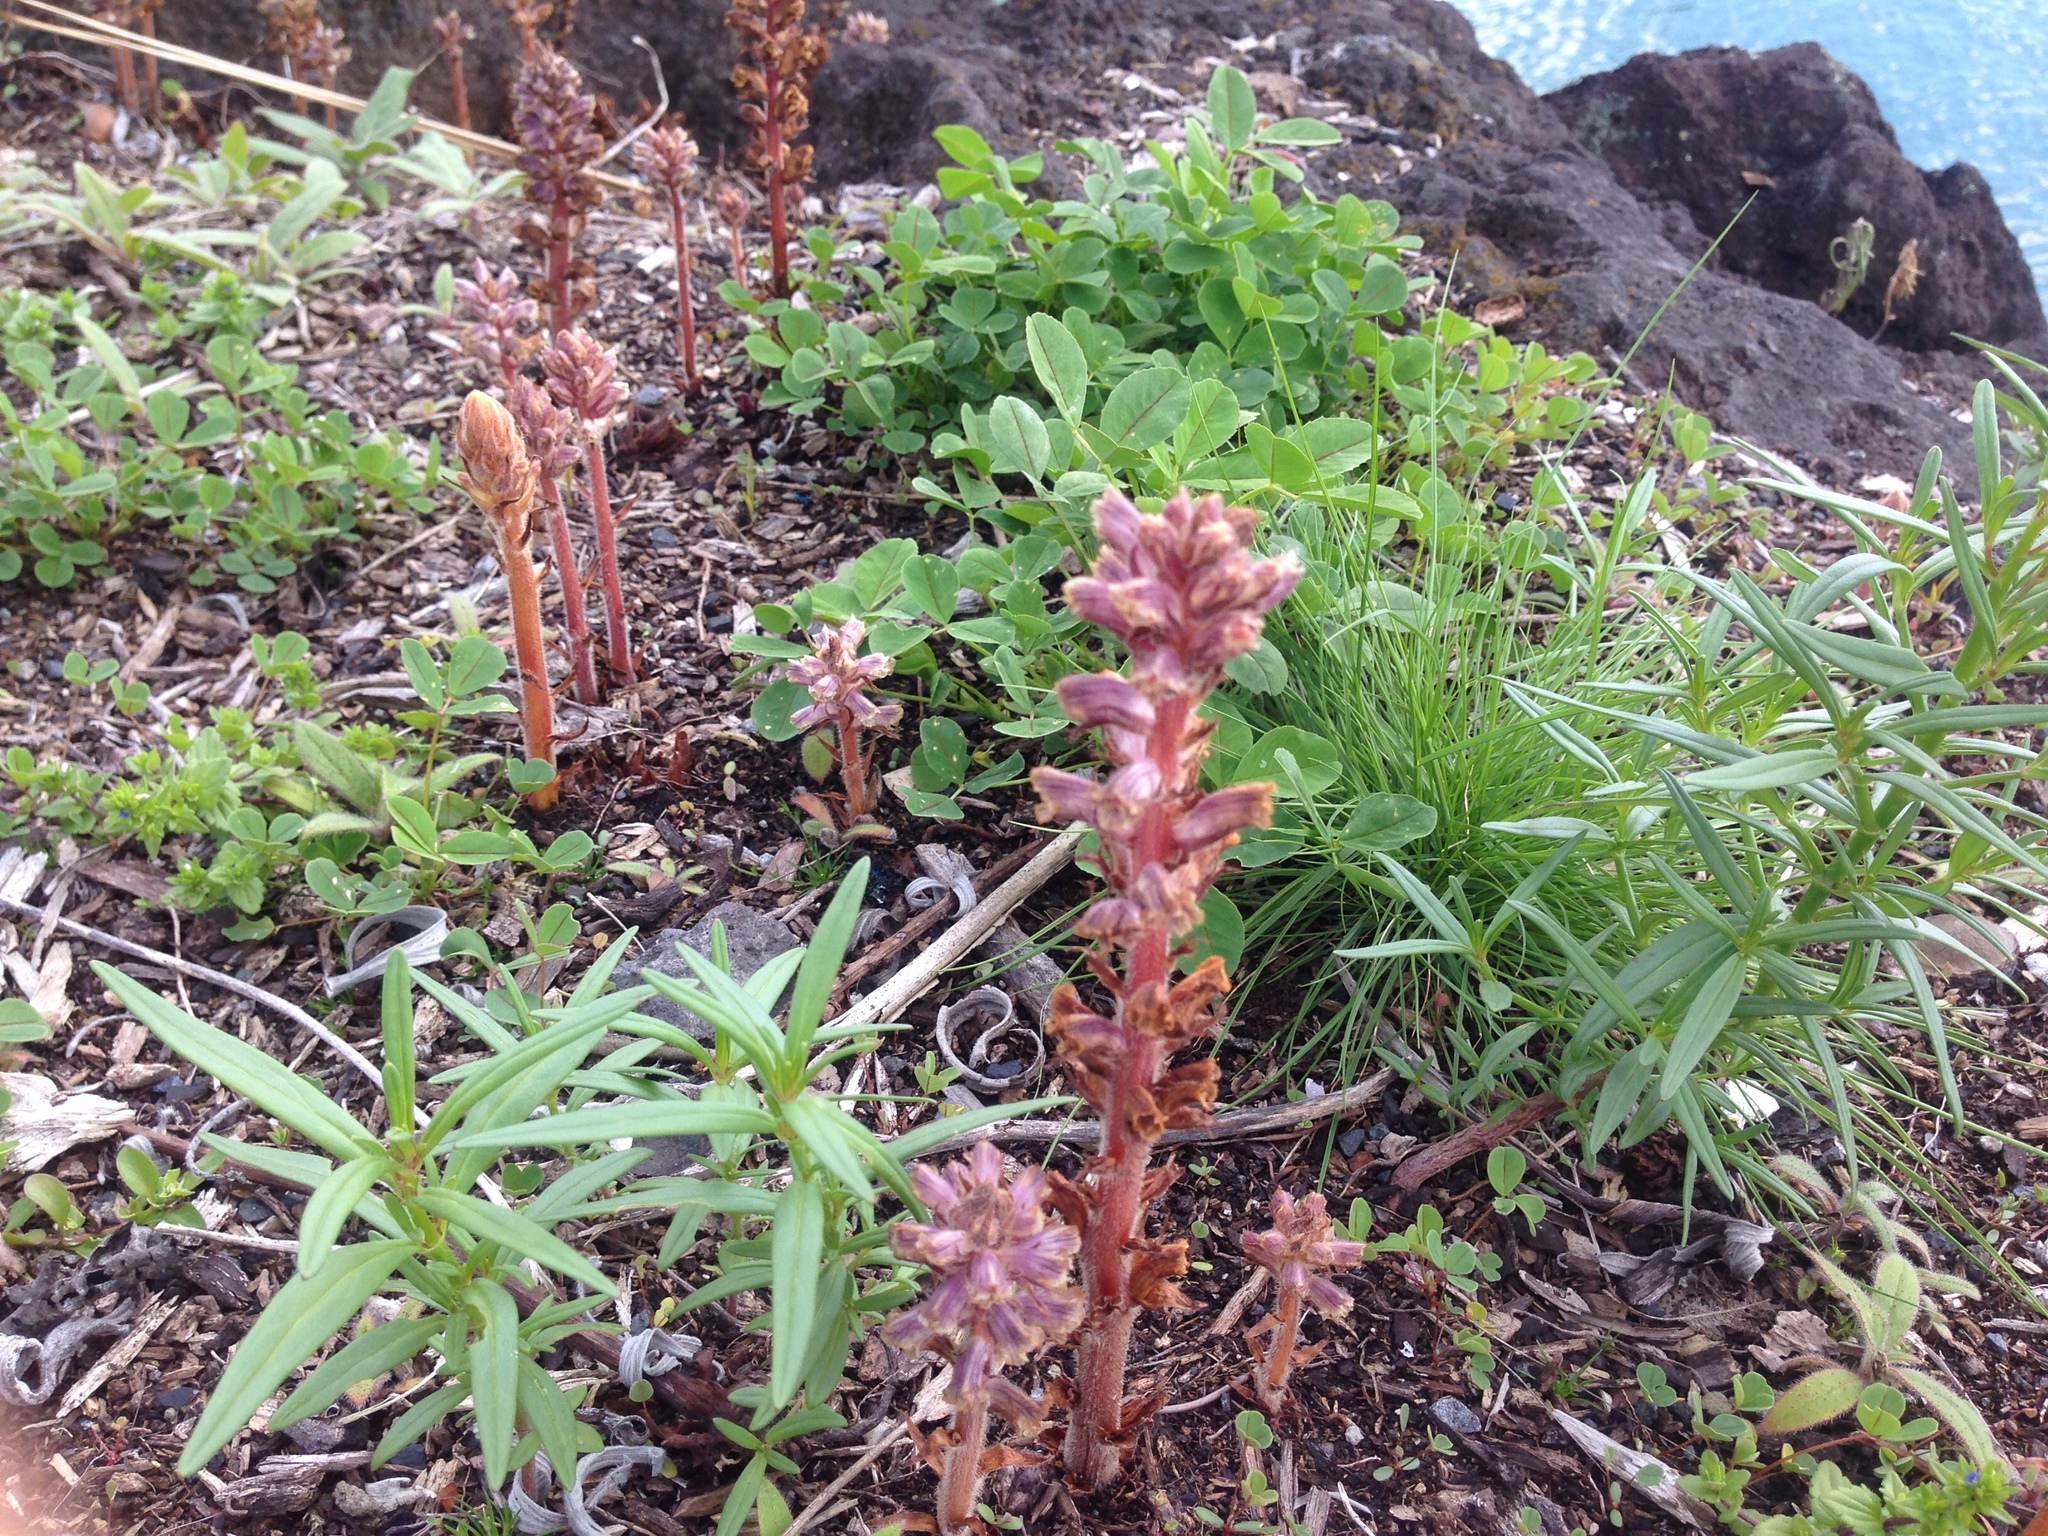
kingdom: Plantae
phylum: Tracheophyta
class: Magnoliopsida
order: Lamiales
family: Orobanchaceae
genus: Orobanche
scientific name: Orobanche minor
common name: Common broomrape
